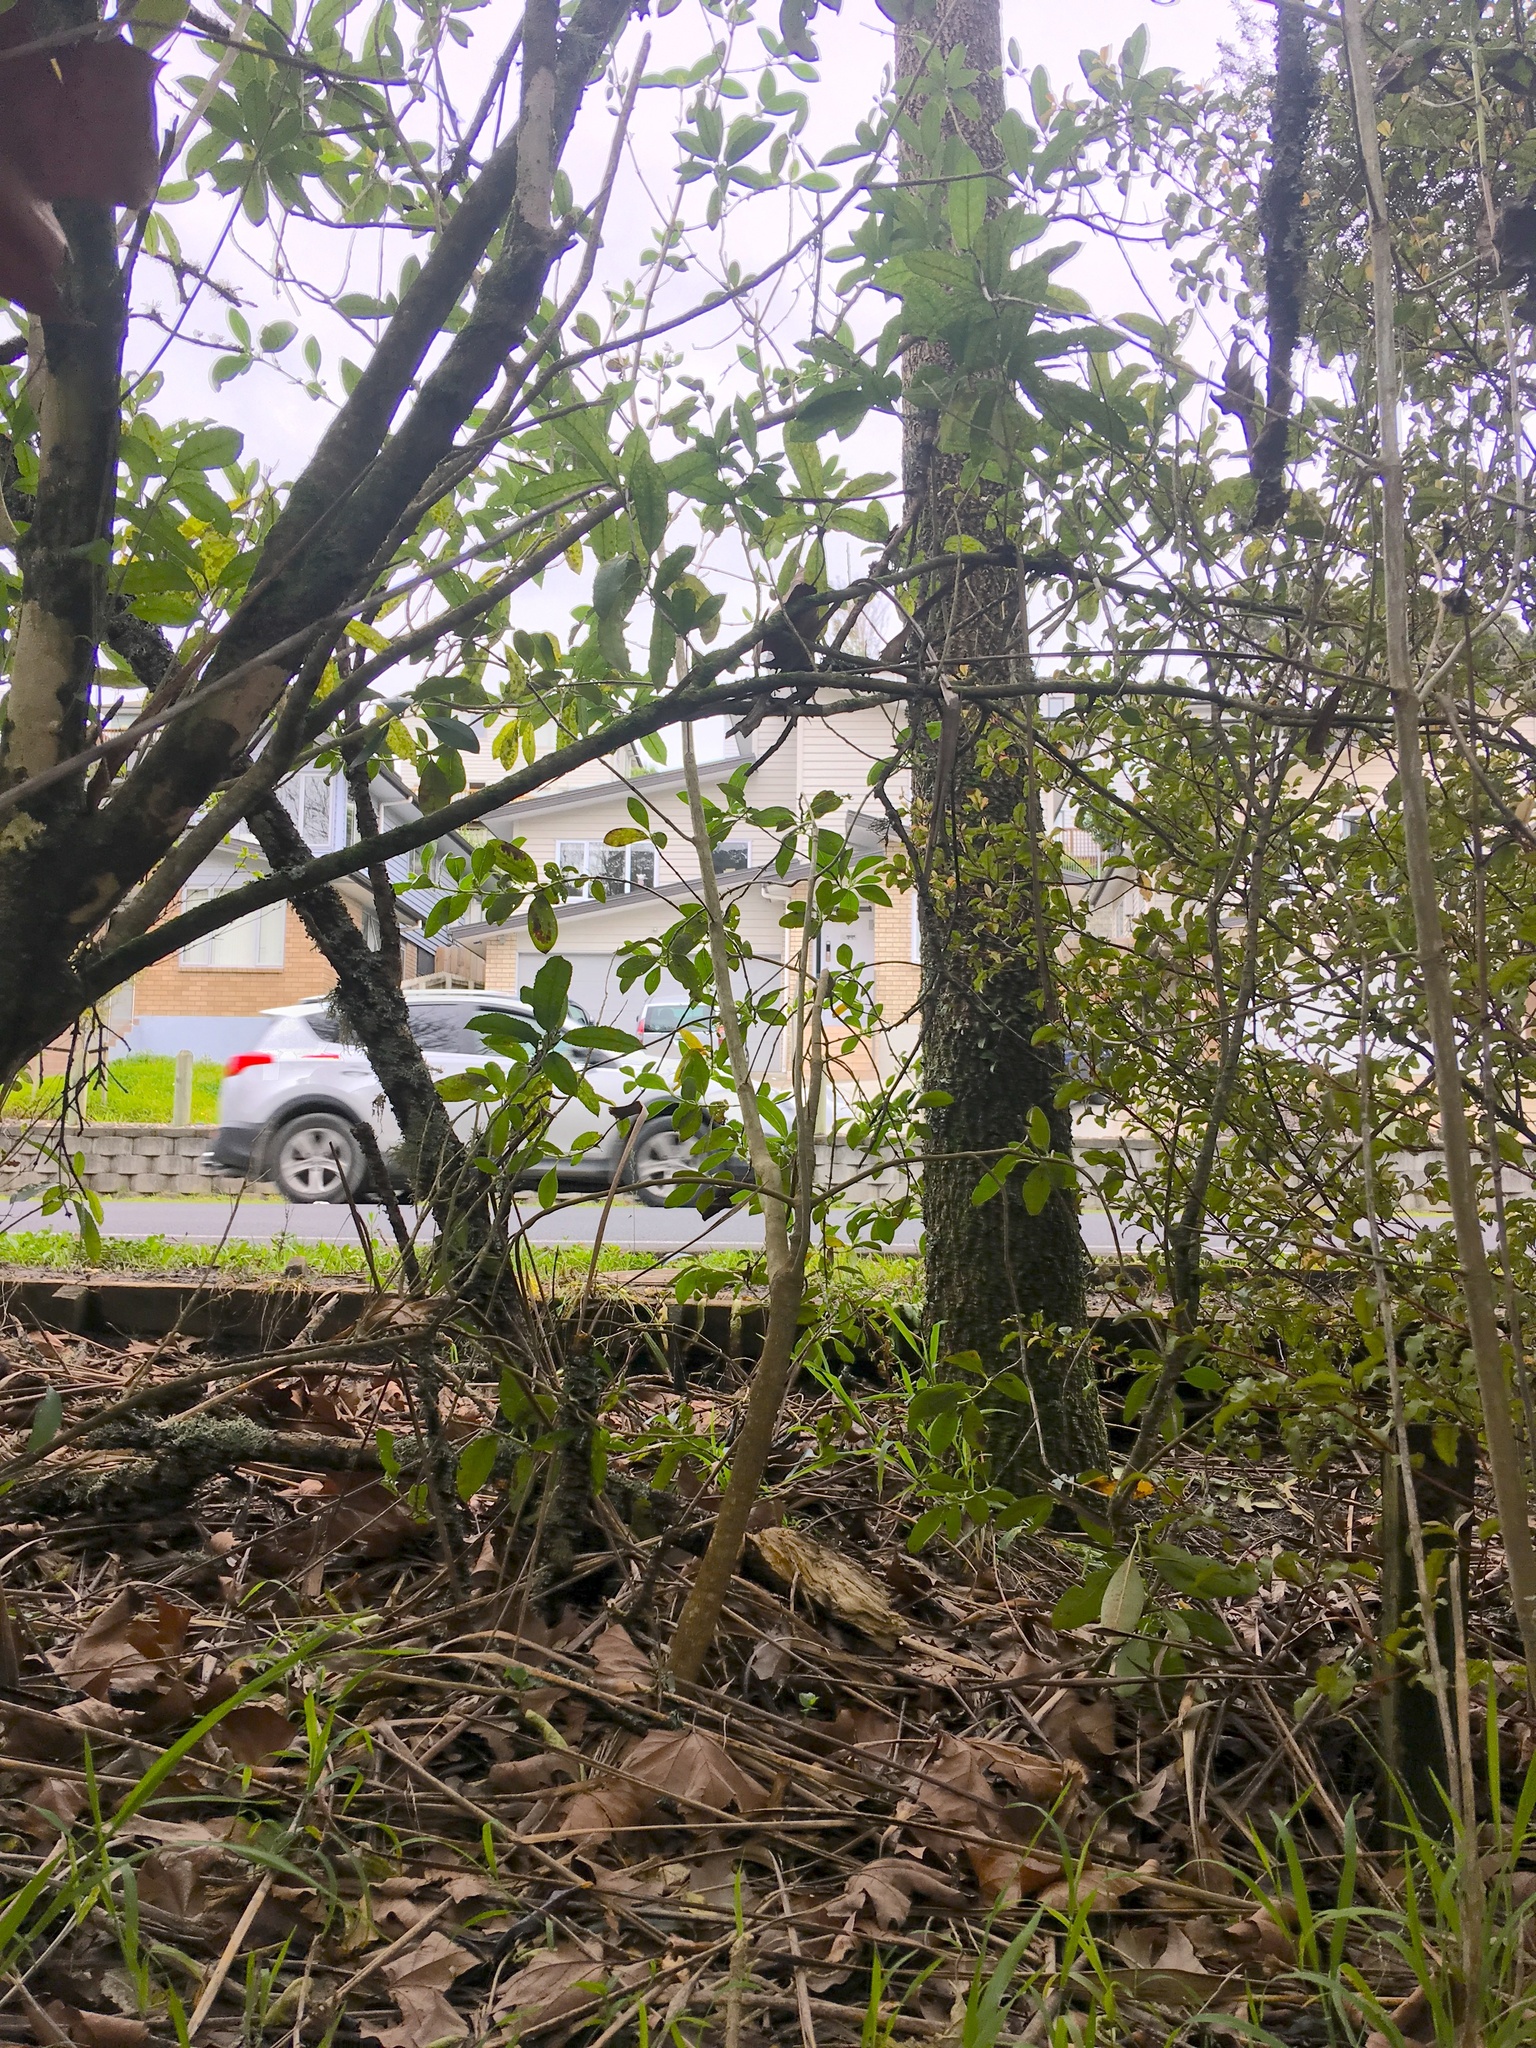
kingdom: Plantae
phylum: Tracheophyta
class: Magnoliopsida
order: Malpighiales
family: Violaceae
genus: Melicytus
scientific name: Melicytus ramiflorus
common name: Mahoe
